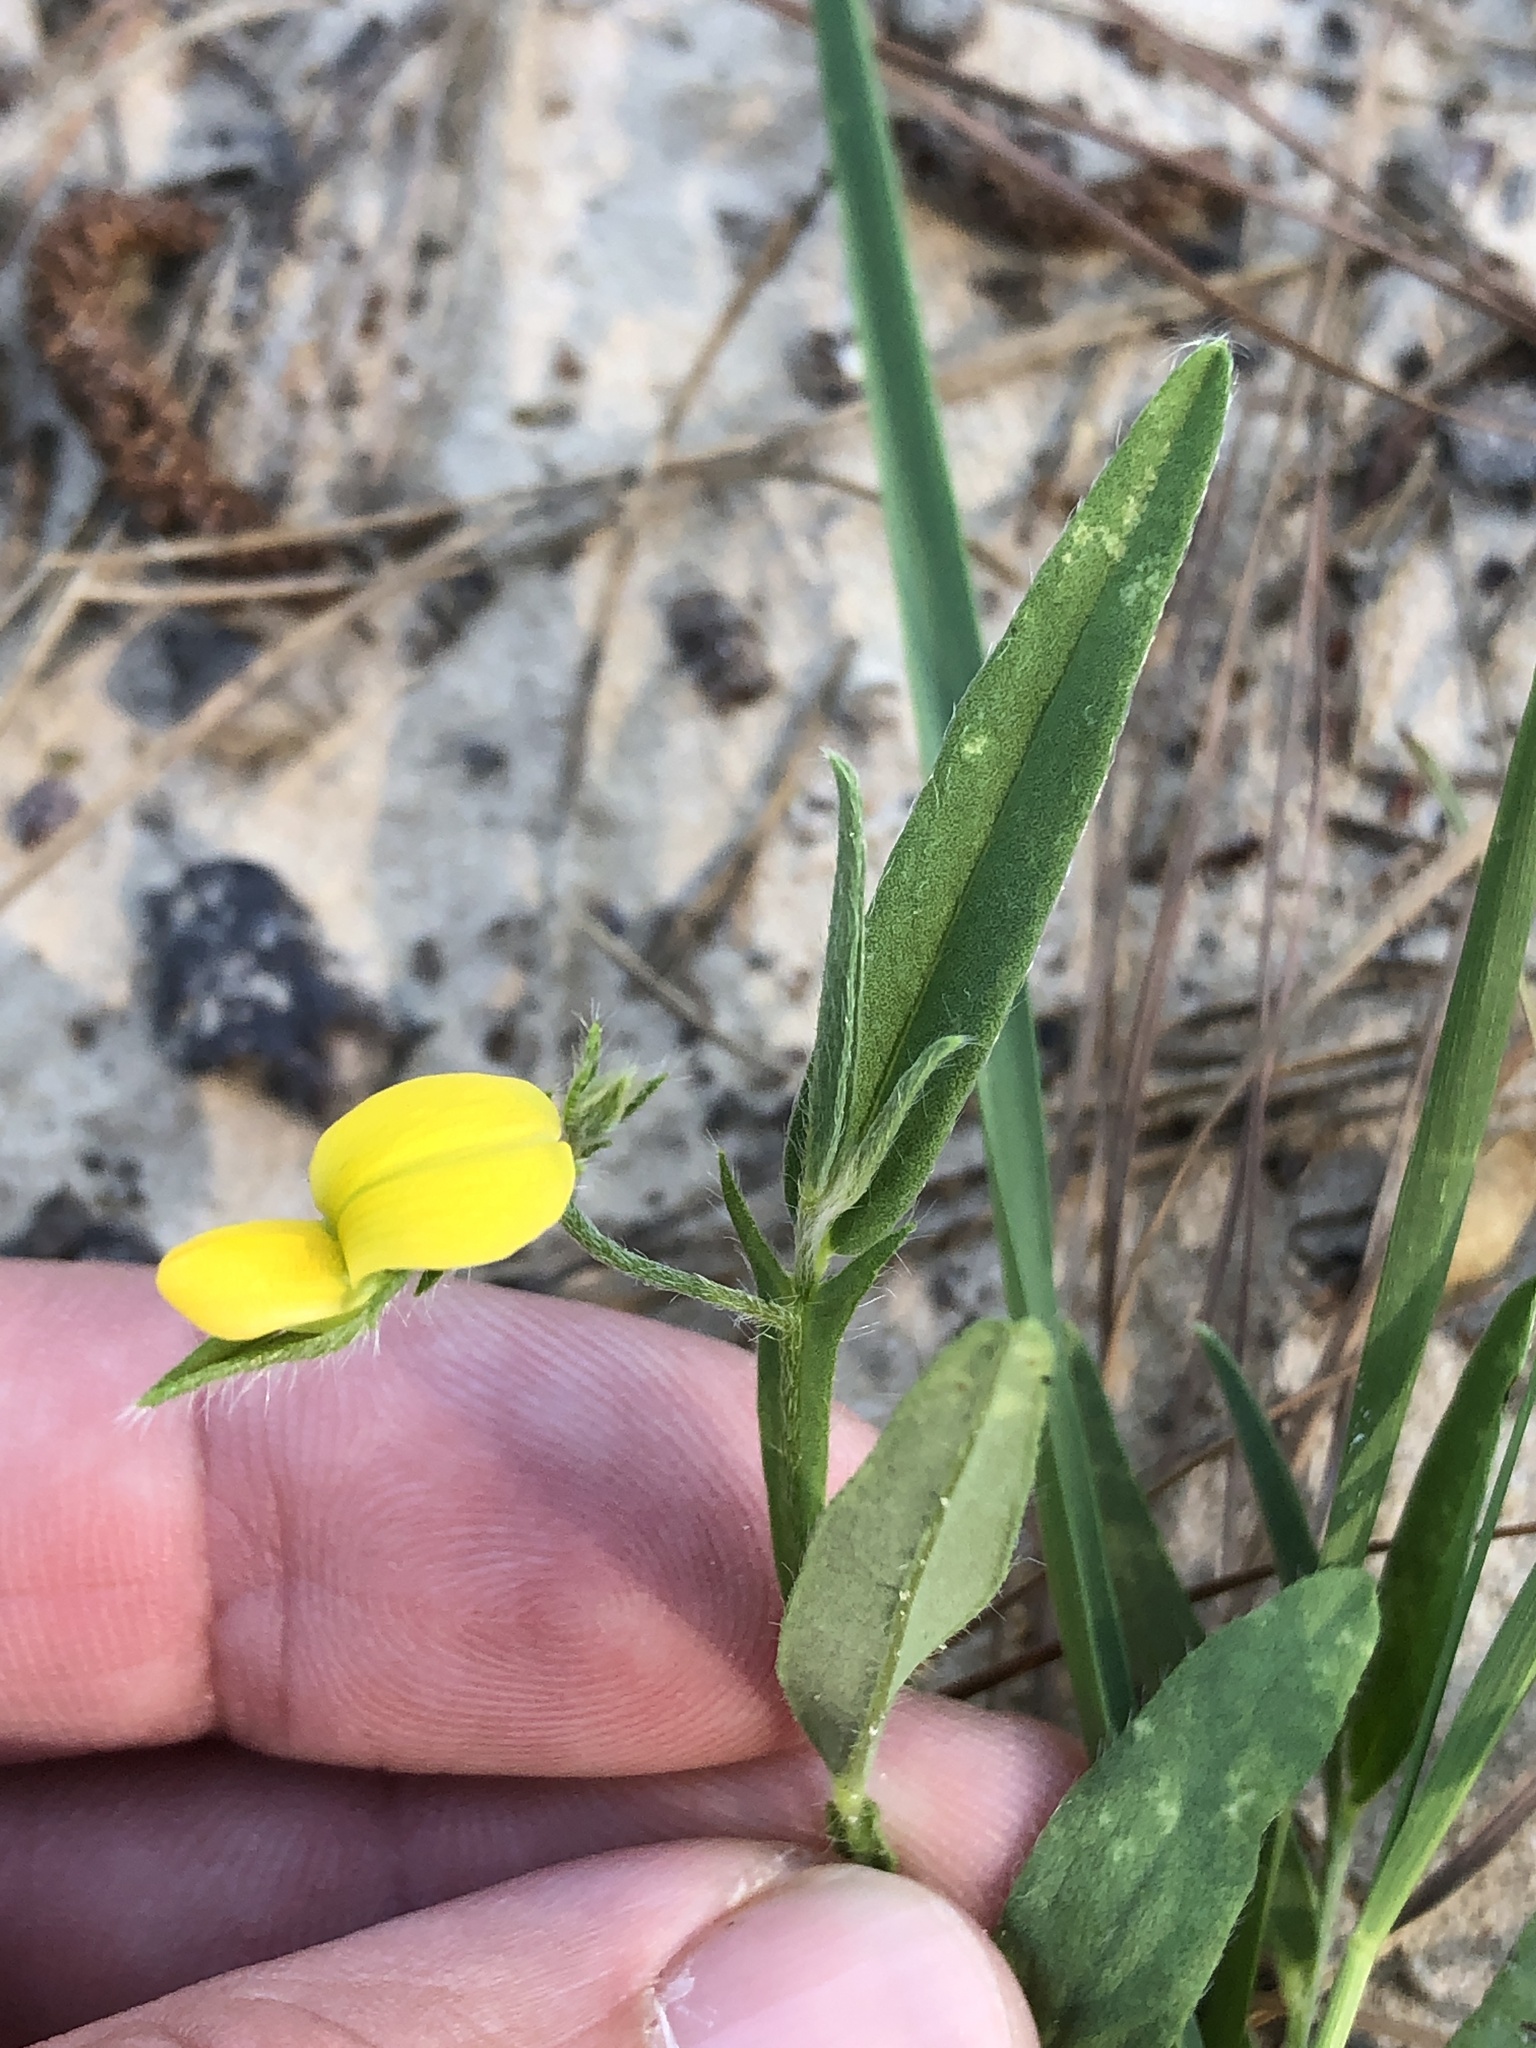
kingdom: Plantae
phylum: Tracheophyta
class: Magnoliopsida
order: Fabales
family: Fabaceae
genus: Crotalaria
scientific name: Crotalaria sagittalis
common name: Arrowhead rattlebox
